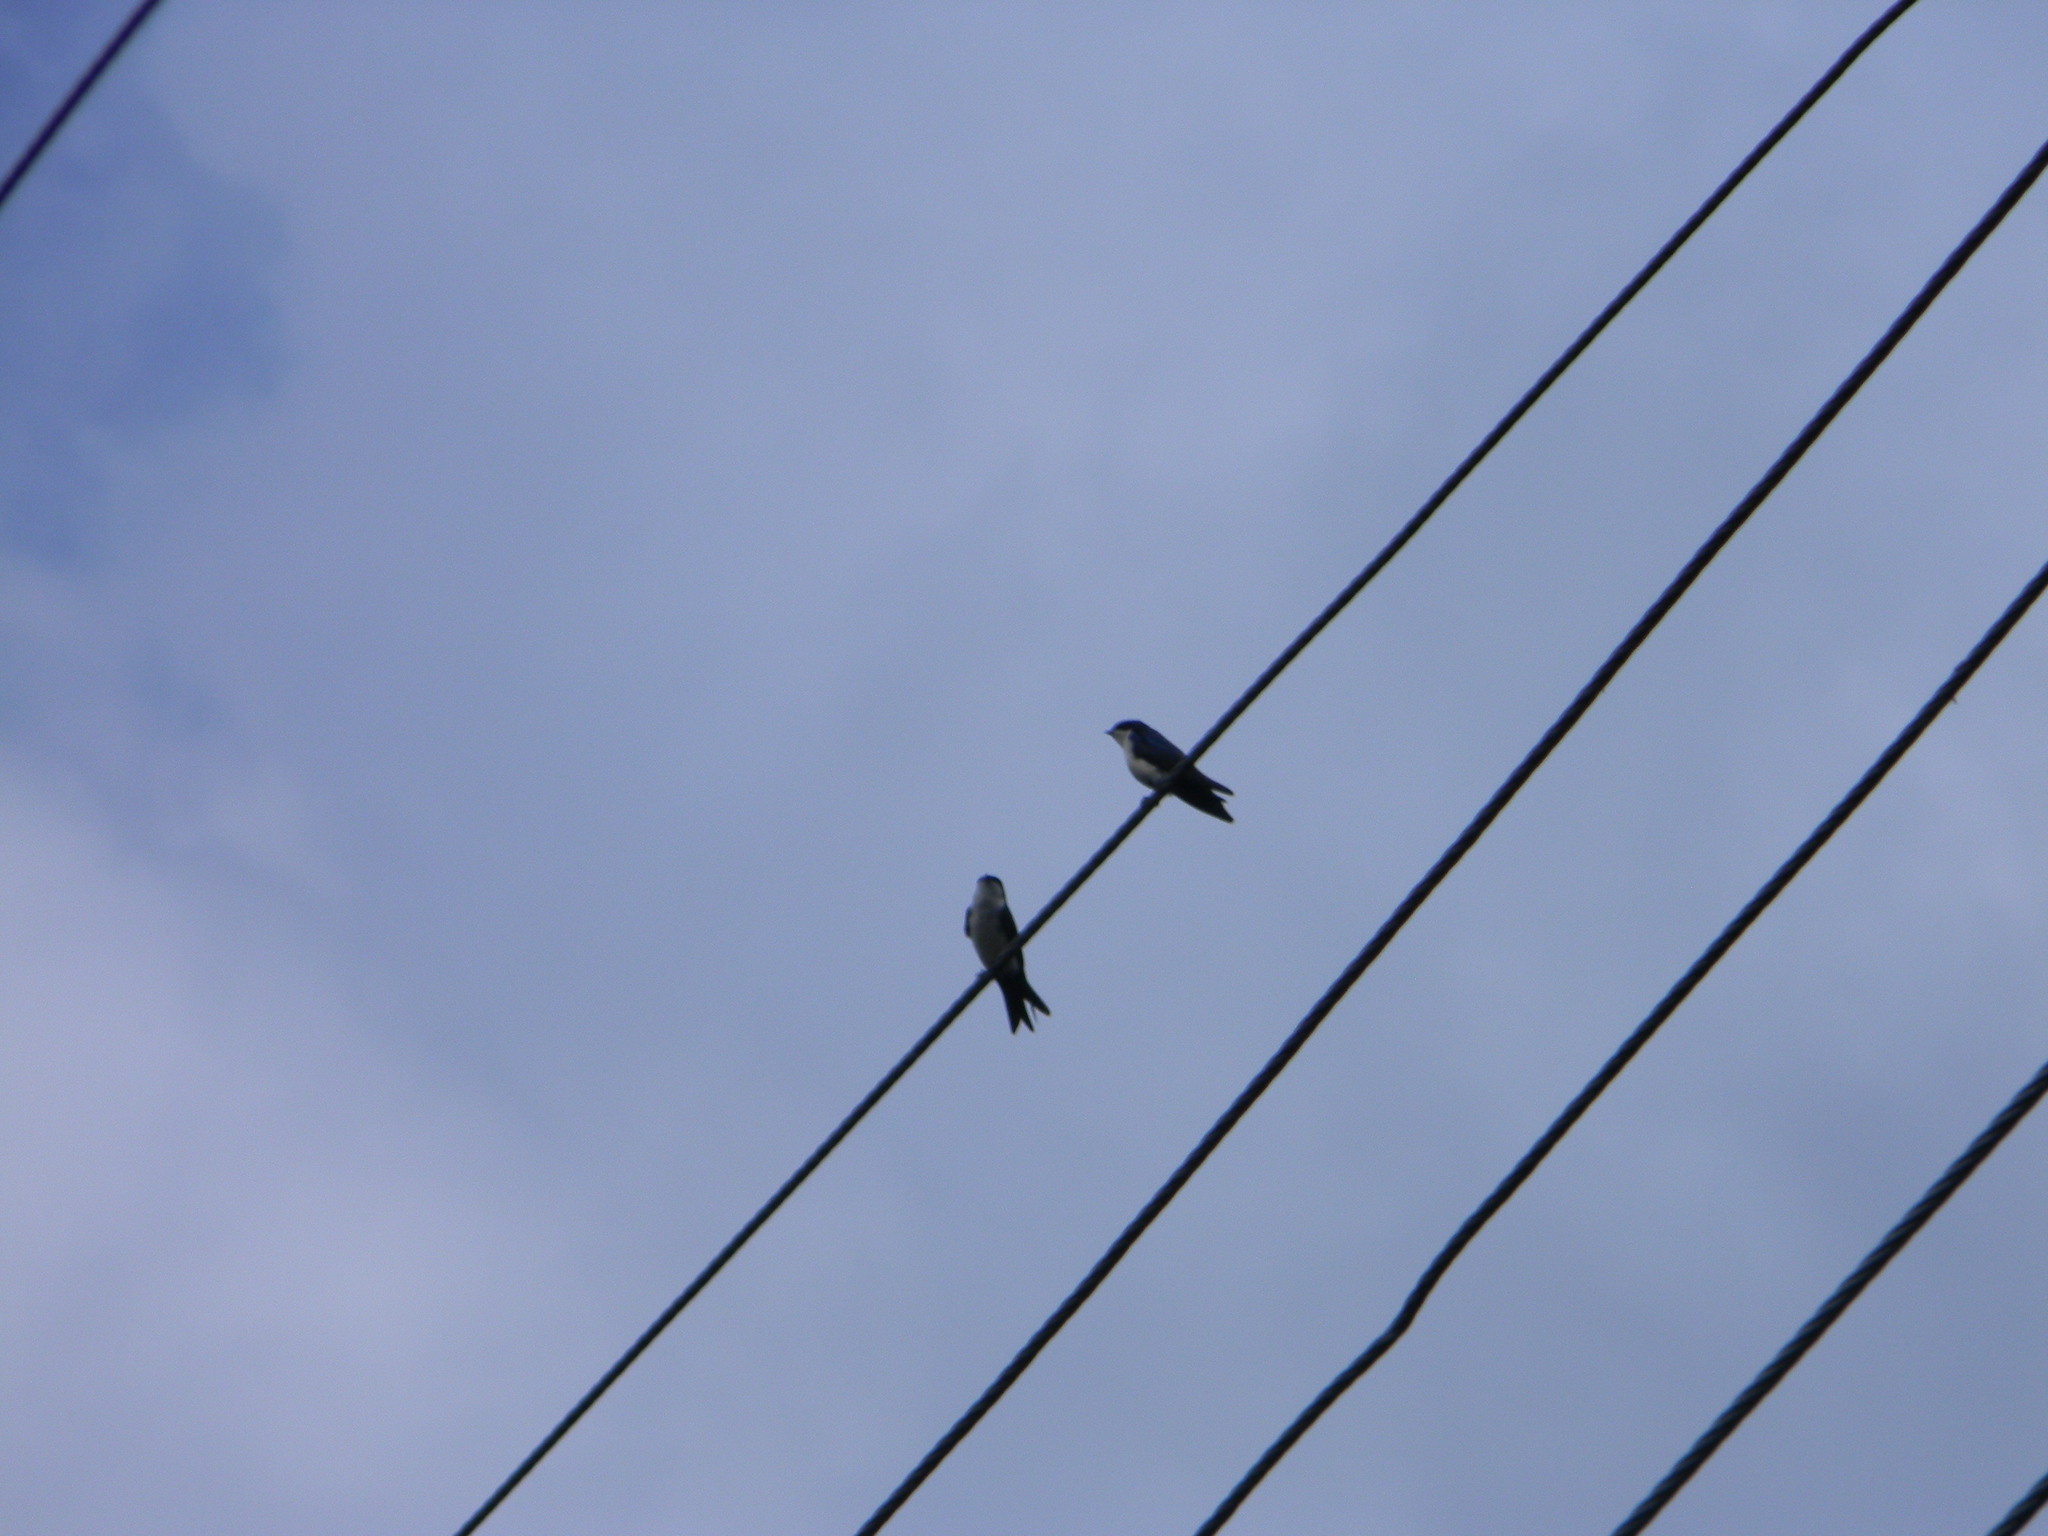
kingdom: Animalia
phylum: Chordata
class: Aves
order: Passeriformes
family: Hirundinidae
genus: Notiochelidon
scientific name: Notiochelidon cyanoleuca
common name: Blue-and-white swallow
